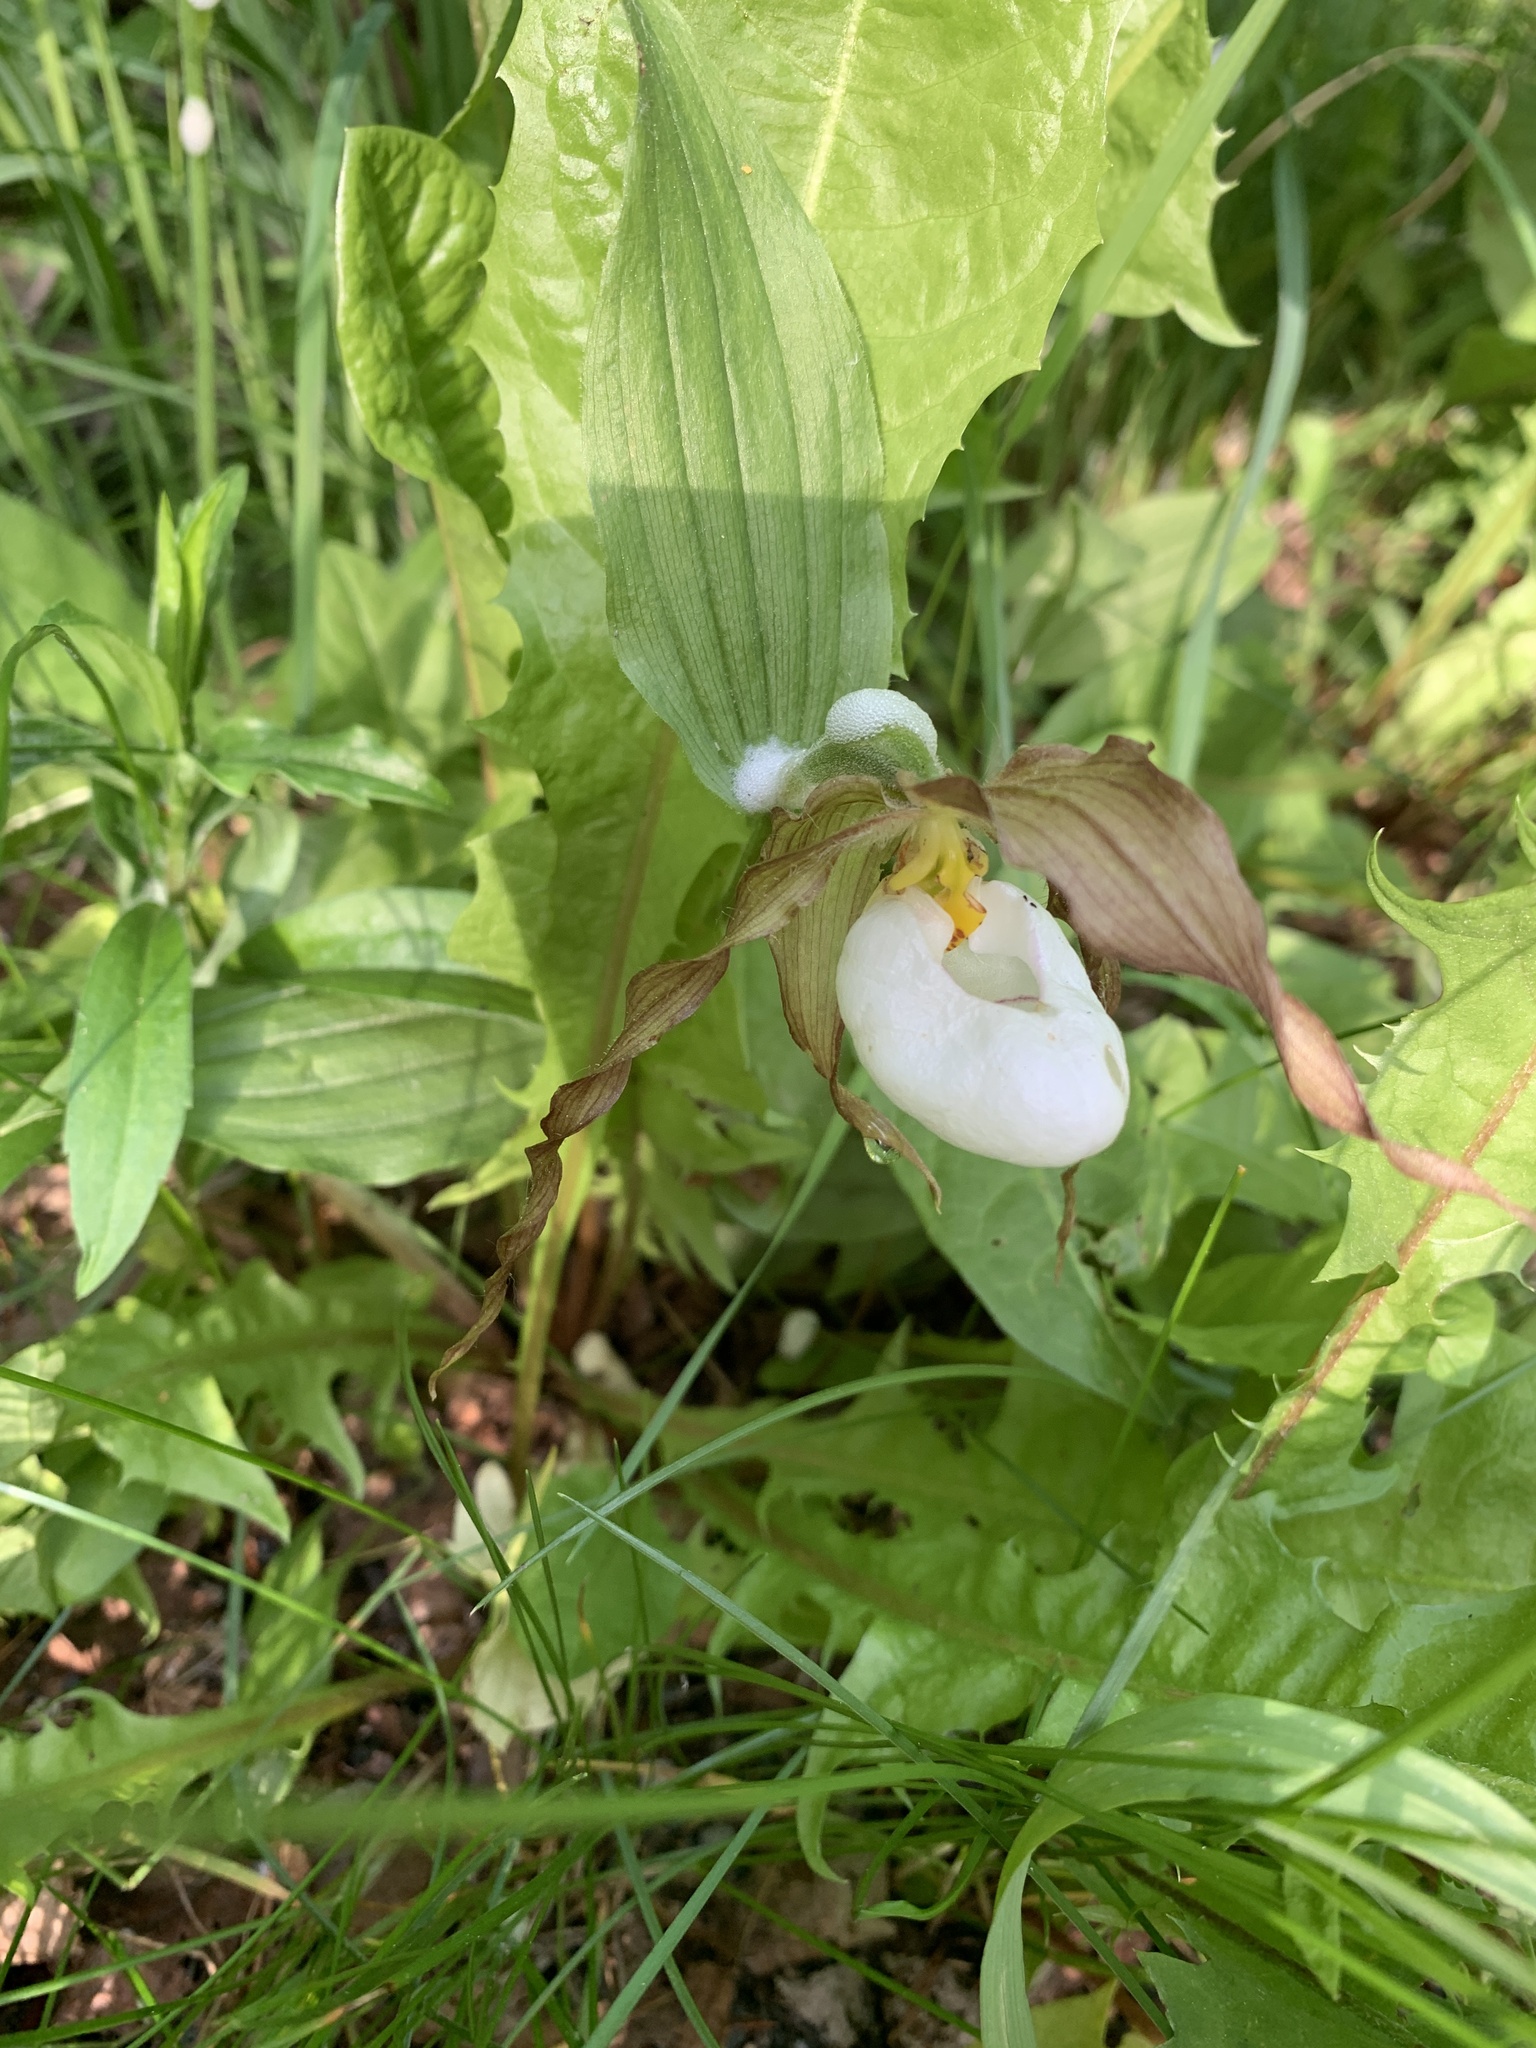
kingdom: Plantae
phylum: Tracheophyta
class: Liliopsida
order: Asparagales
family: Orchidaceae
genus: Cypripedium
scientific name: Cypripedium montanum
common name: Mountain lady's-slipper
